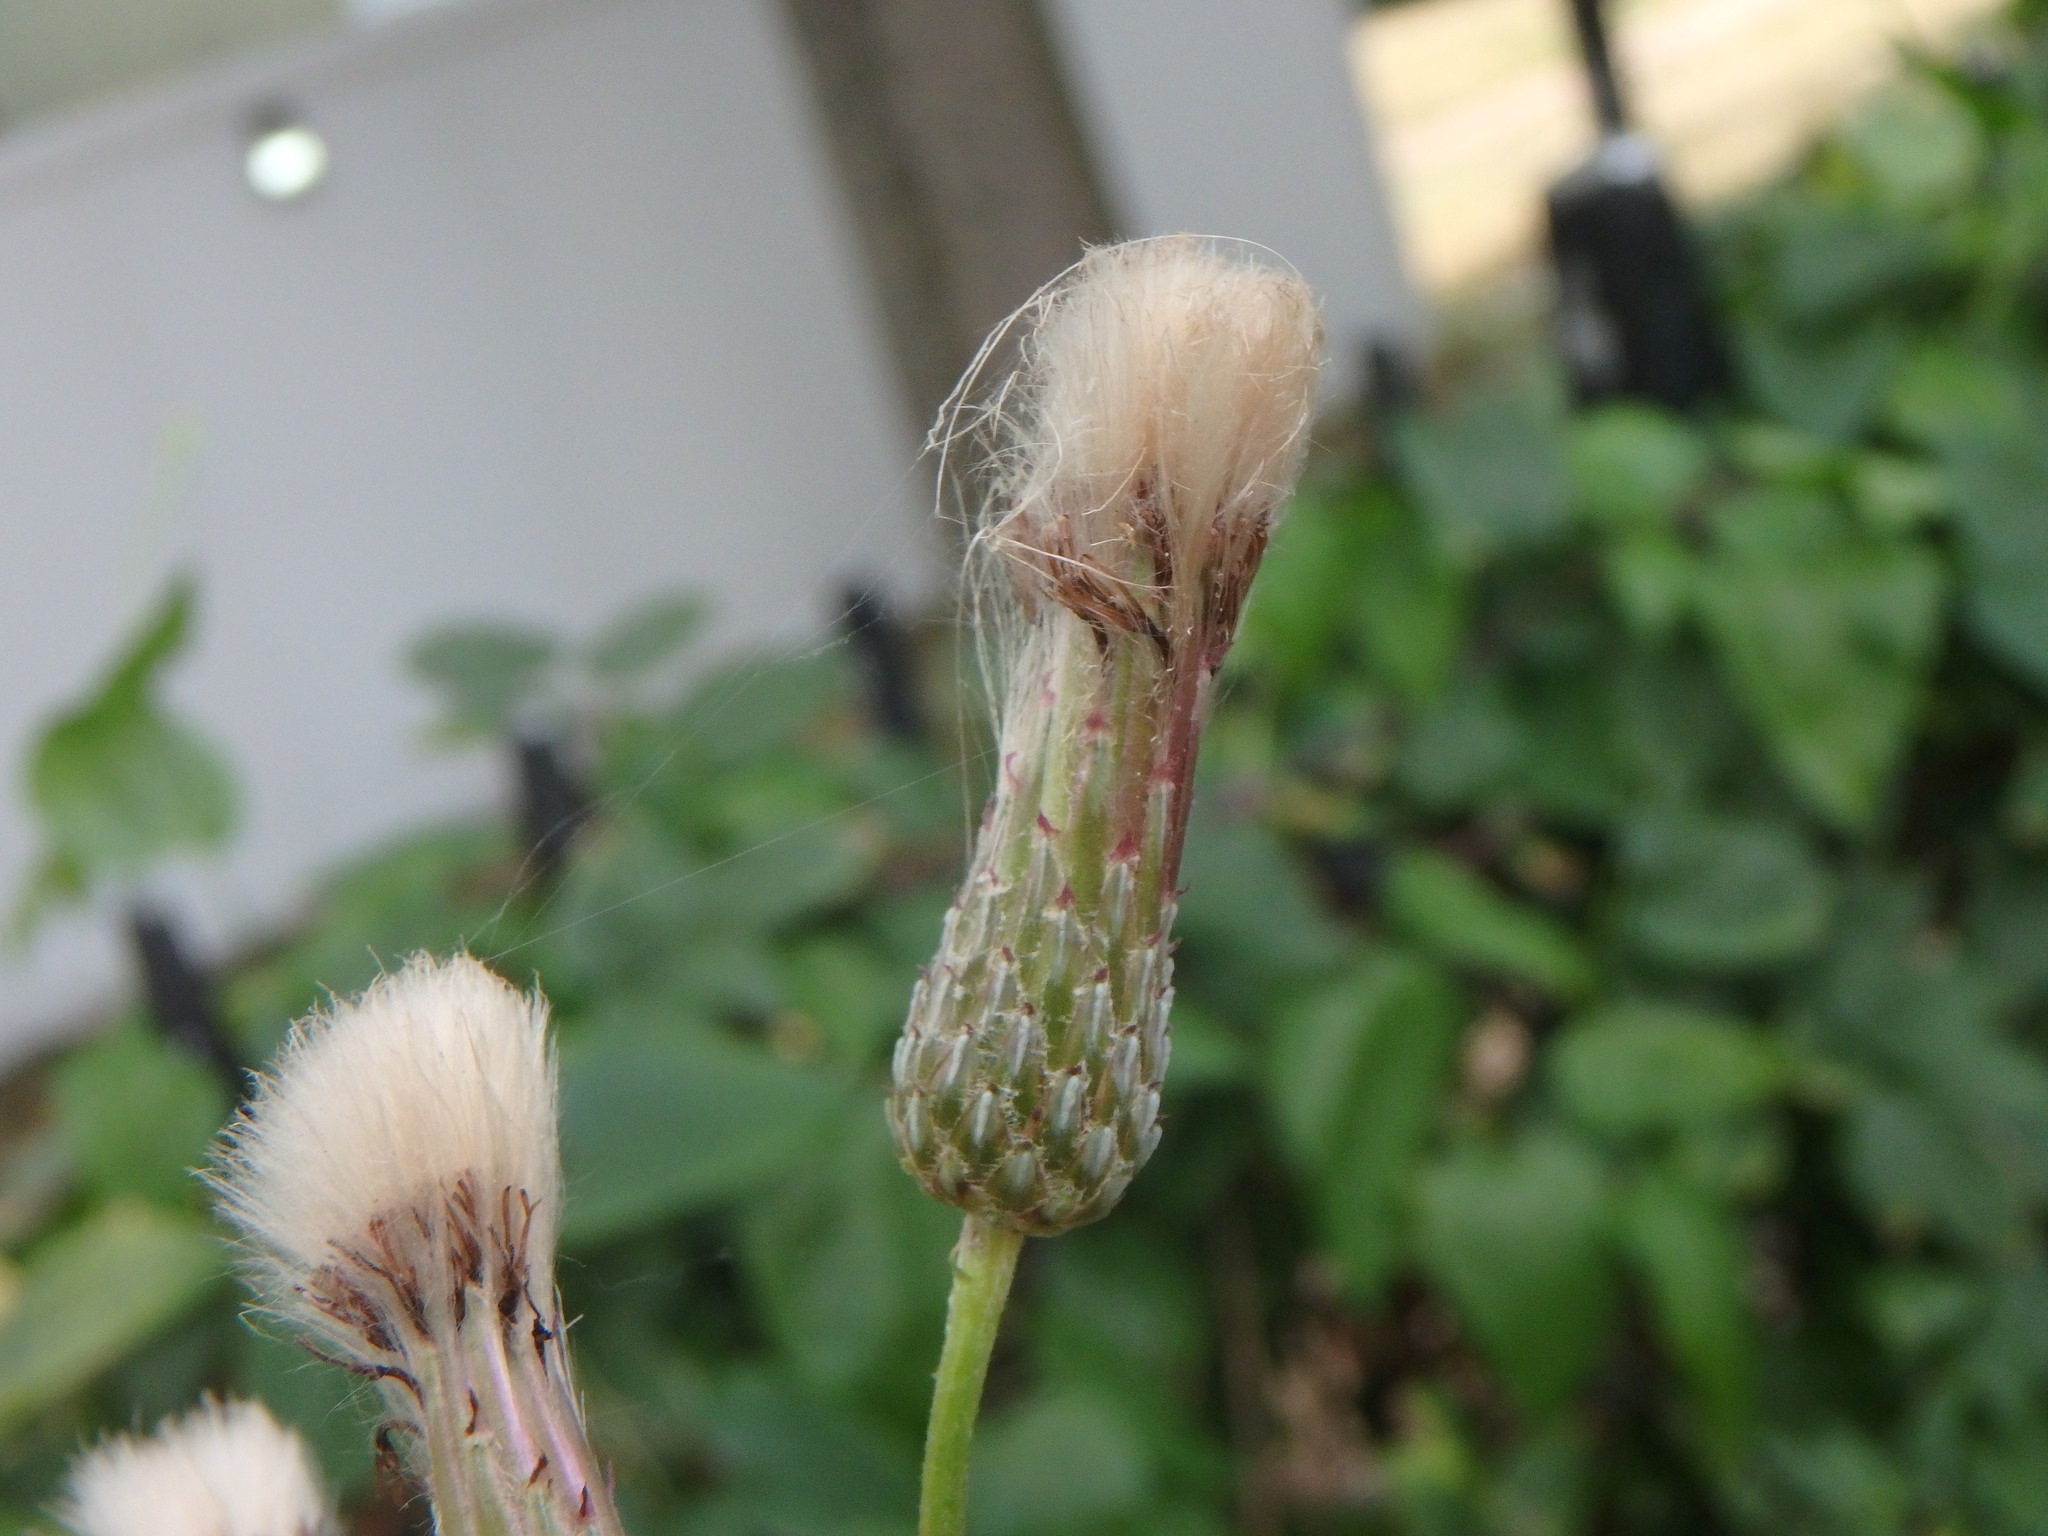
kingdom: Plantae
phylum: Tracheophyta
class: Magnoliopsida
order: Asterales
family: Asteraceae
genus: Cirsium
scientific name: Cirsium arvense
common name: Creeping thistle
